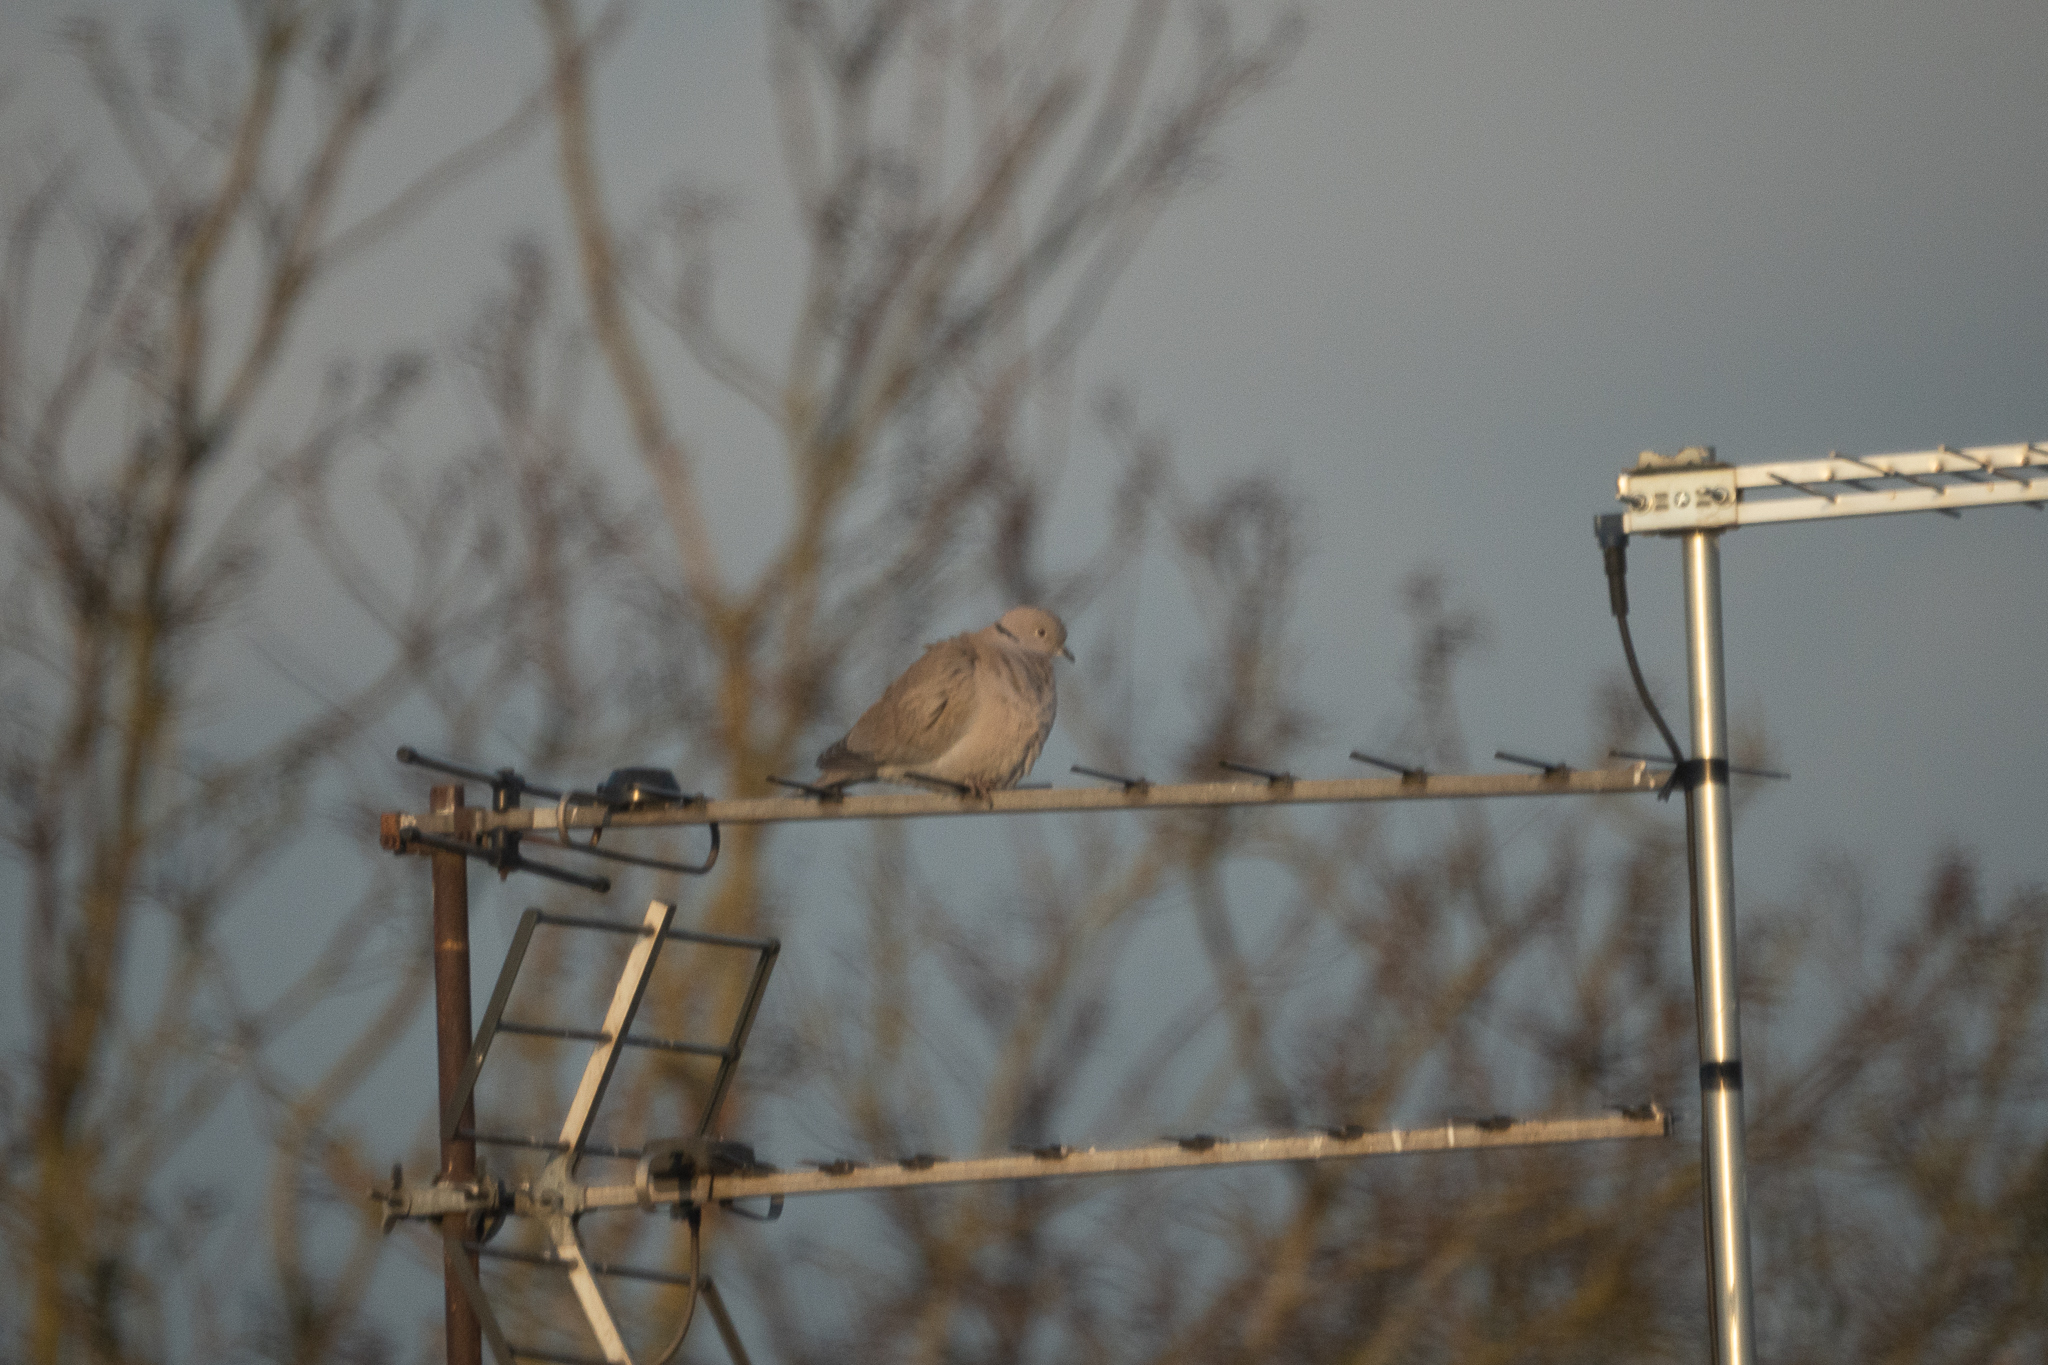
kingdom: Animalia
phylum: Chordata
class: Aves
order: Columbiformes
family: Columbidae
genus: Streptopelia
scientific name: Streptopelia decaocto
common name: Eurasian collared dove
